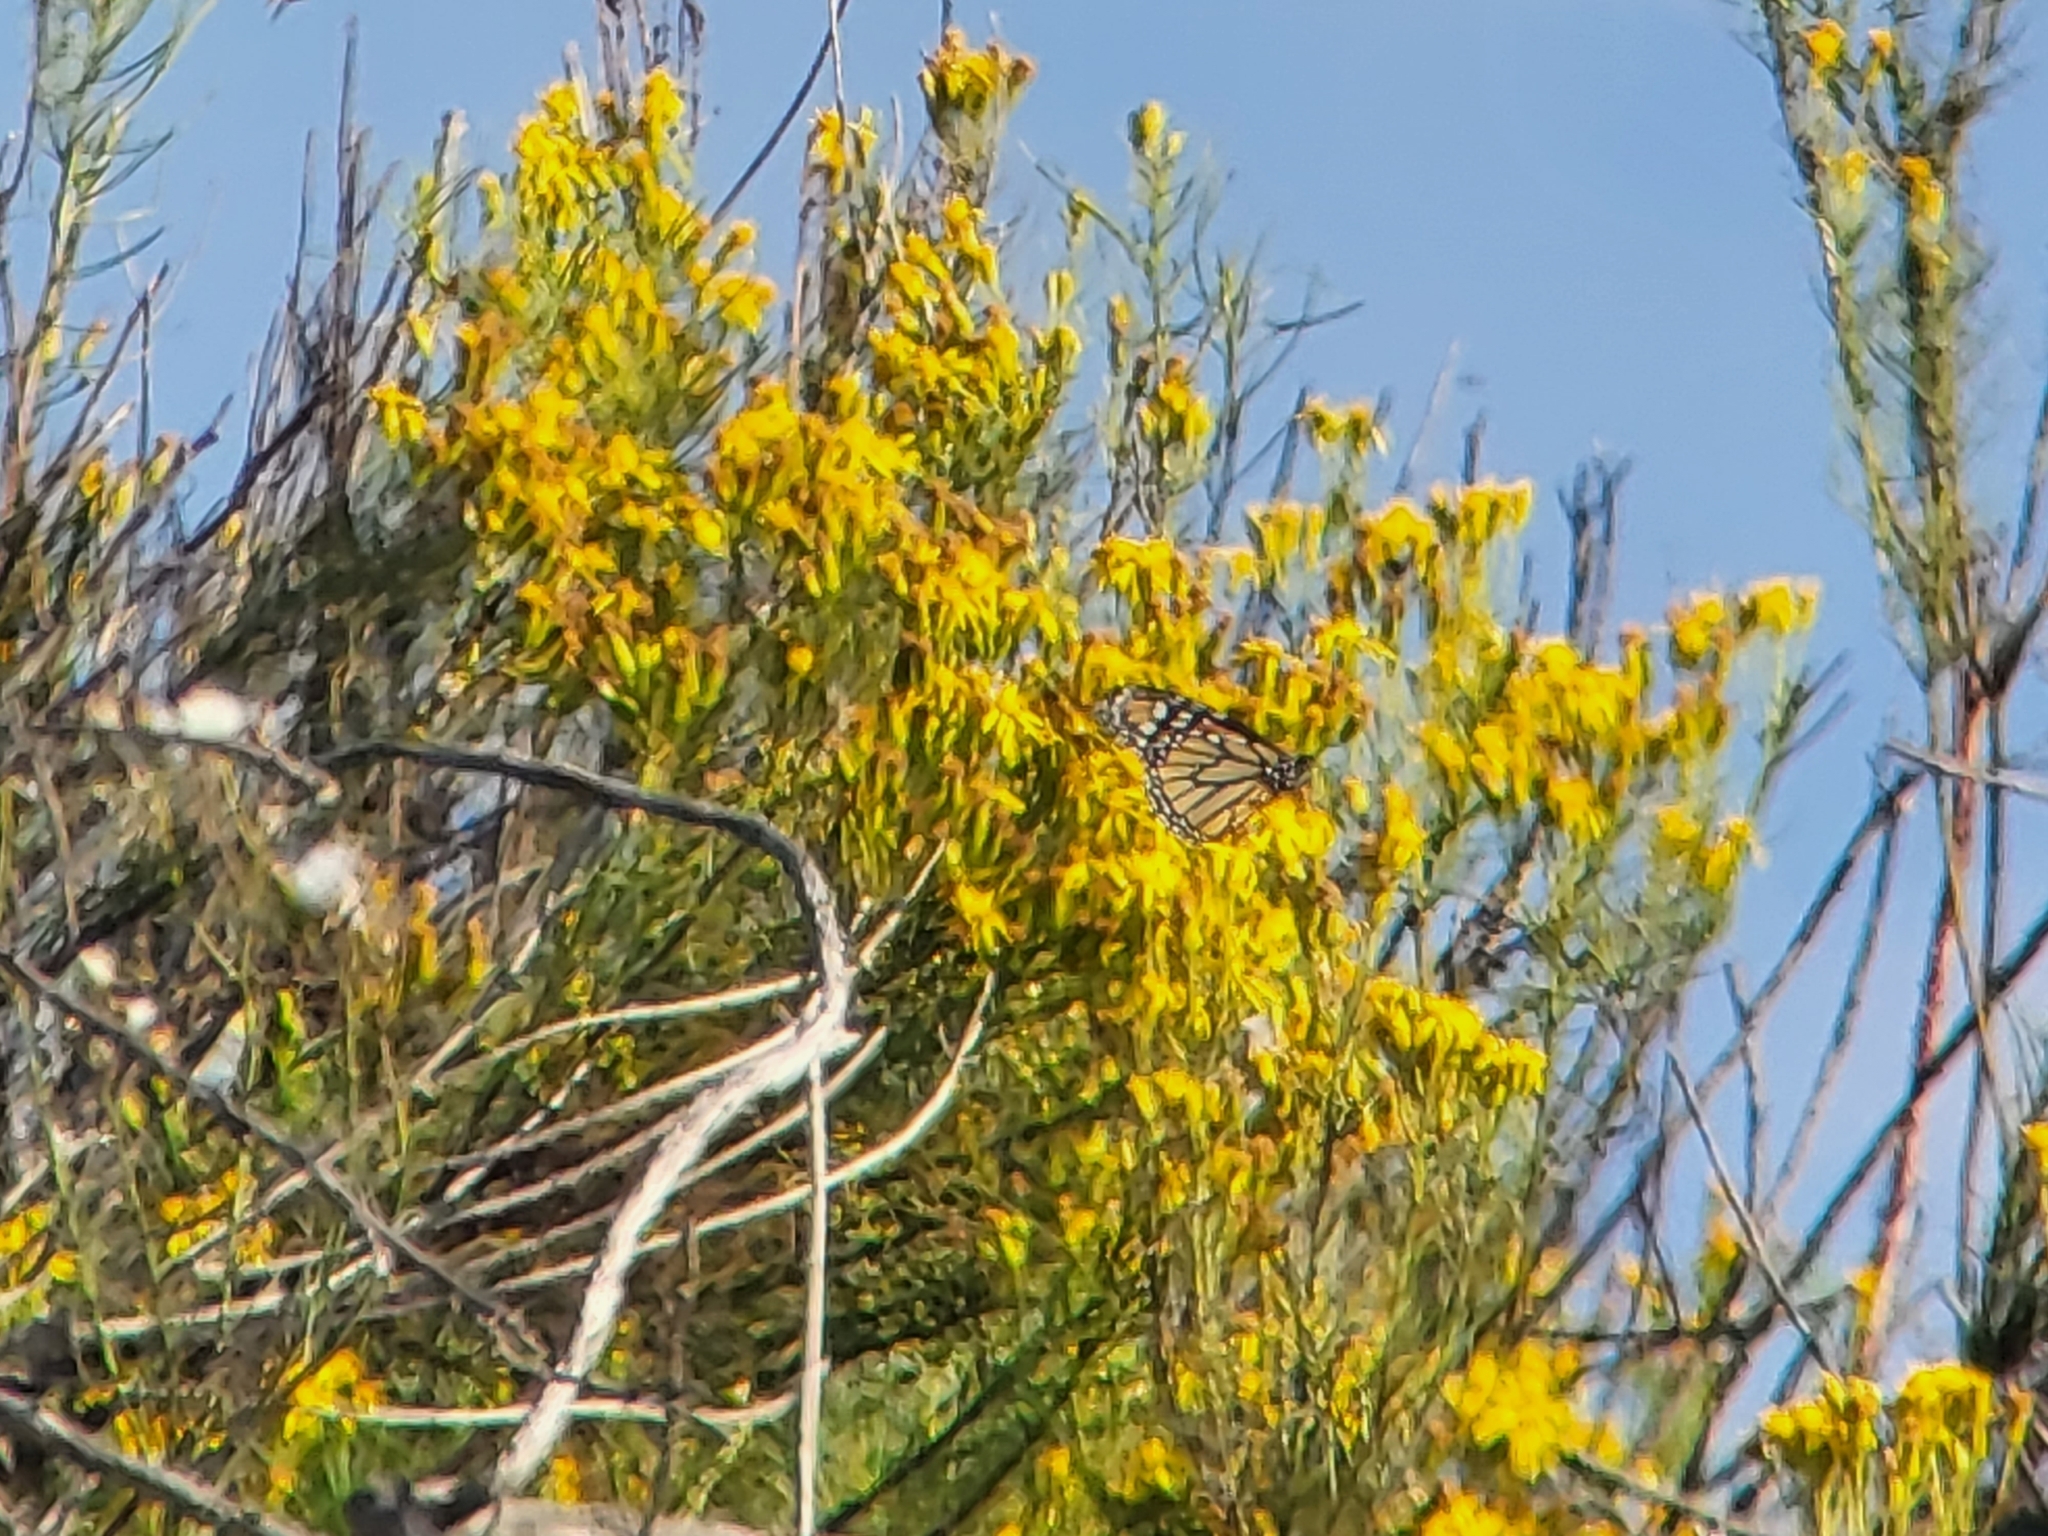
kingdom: Animalia
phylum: Arthropoda
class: Insecta
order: Lepidoptera
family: Nymphalidae
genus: Danaus
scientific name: Danaus plexippus
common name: Monarch
